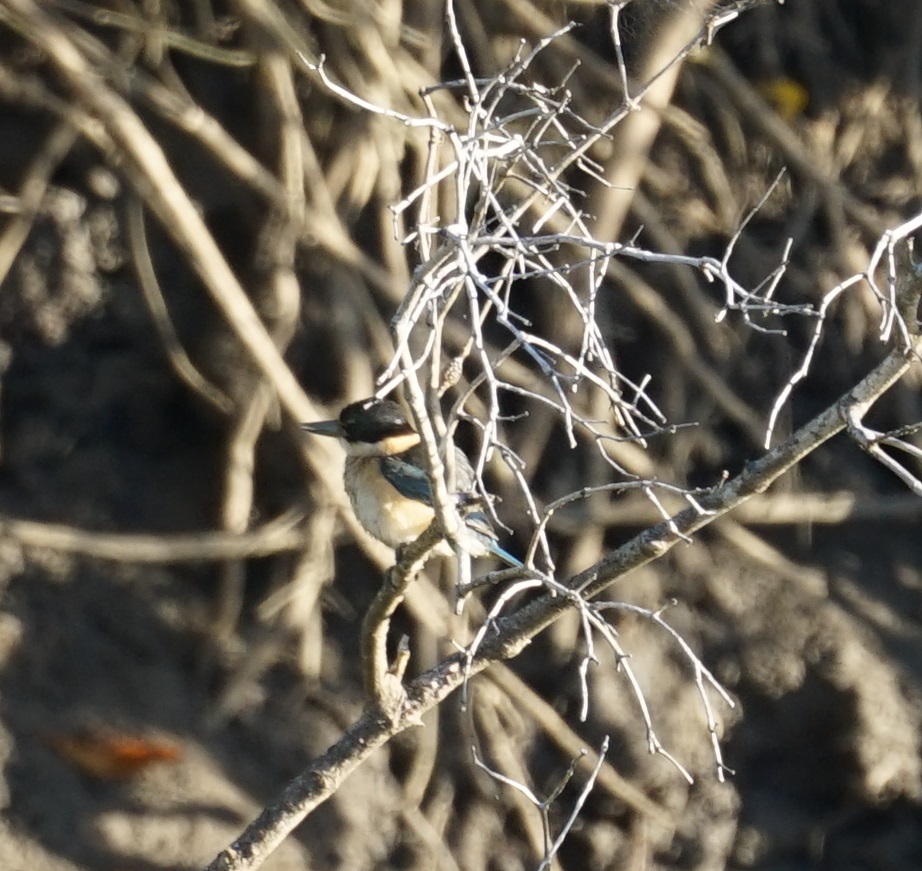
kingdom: Animalia
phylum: Chordata
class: Aves
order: Coraciiformes
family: Alcedinidae
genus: Todiramphus
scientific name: Todiramphus sanctus
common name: Sacred kingfisher
